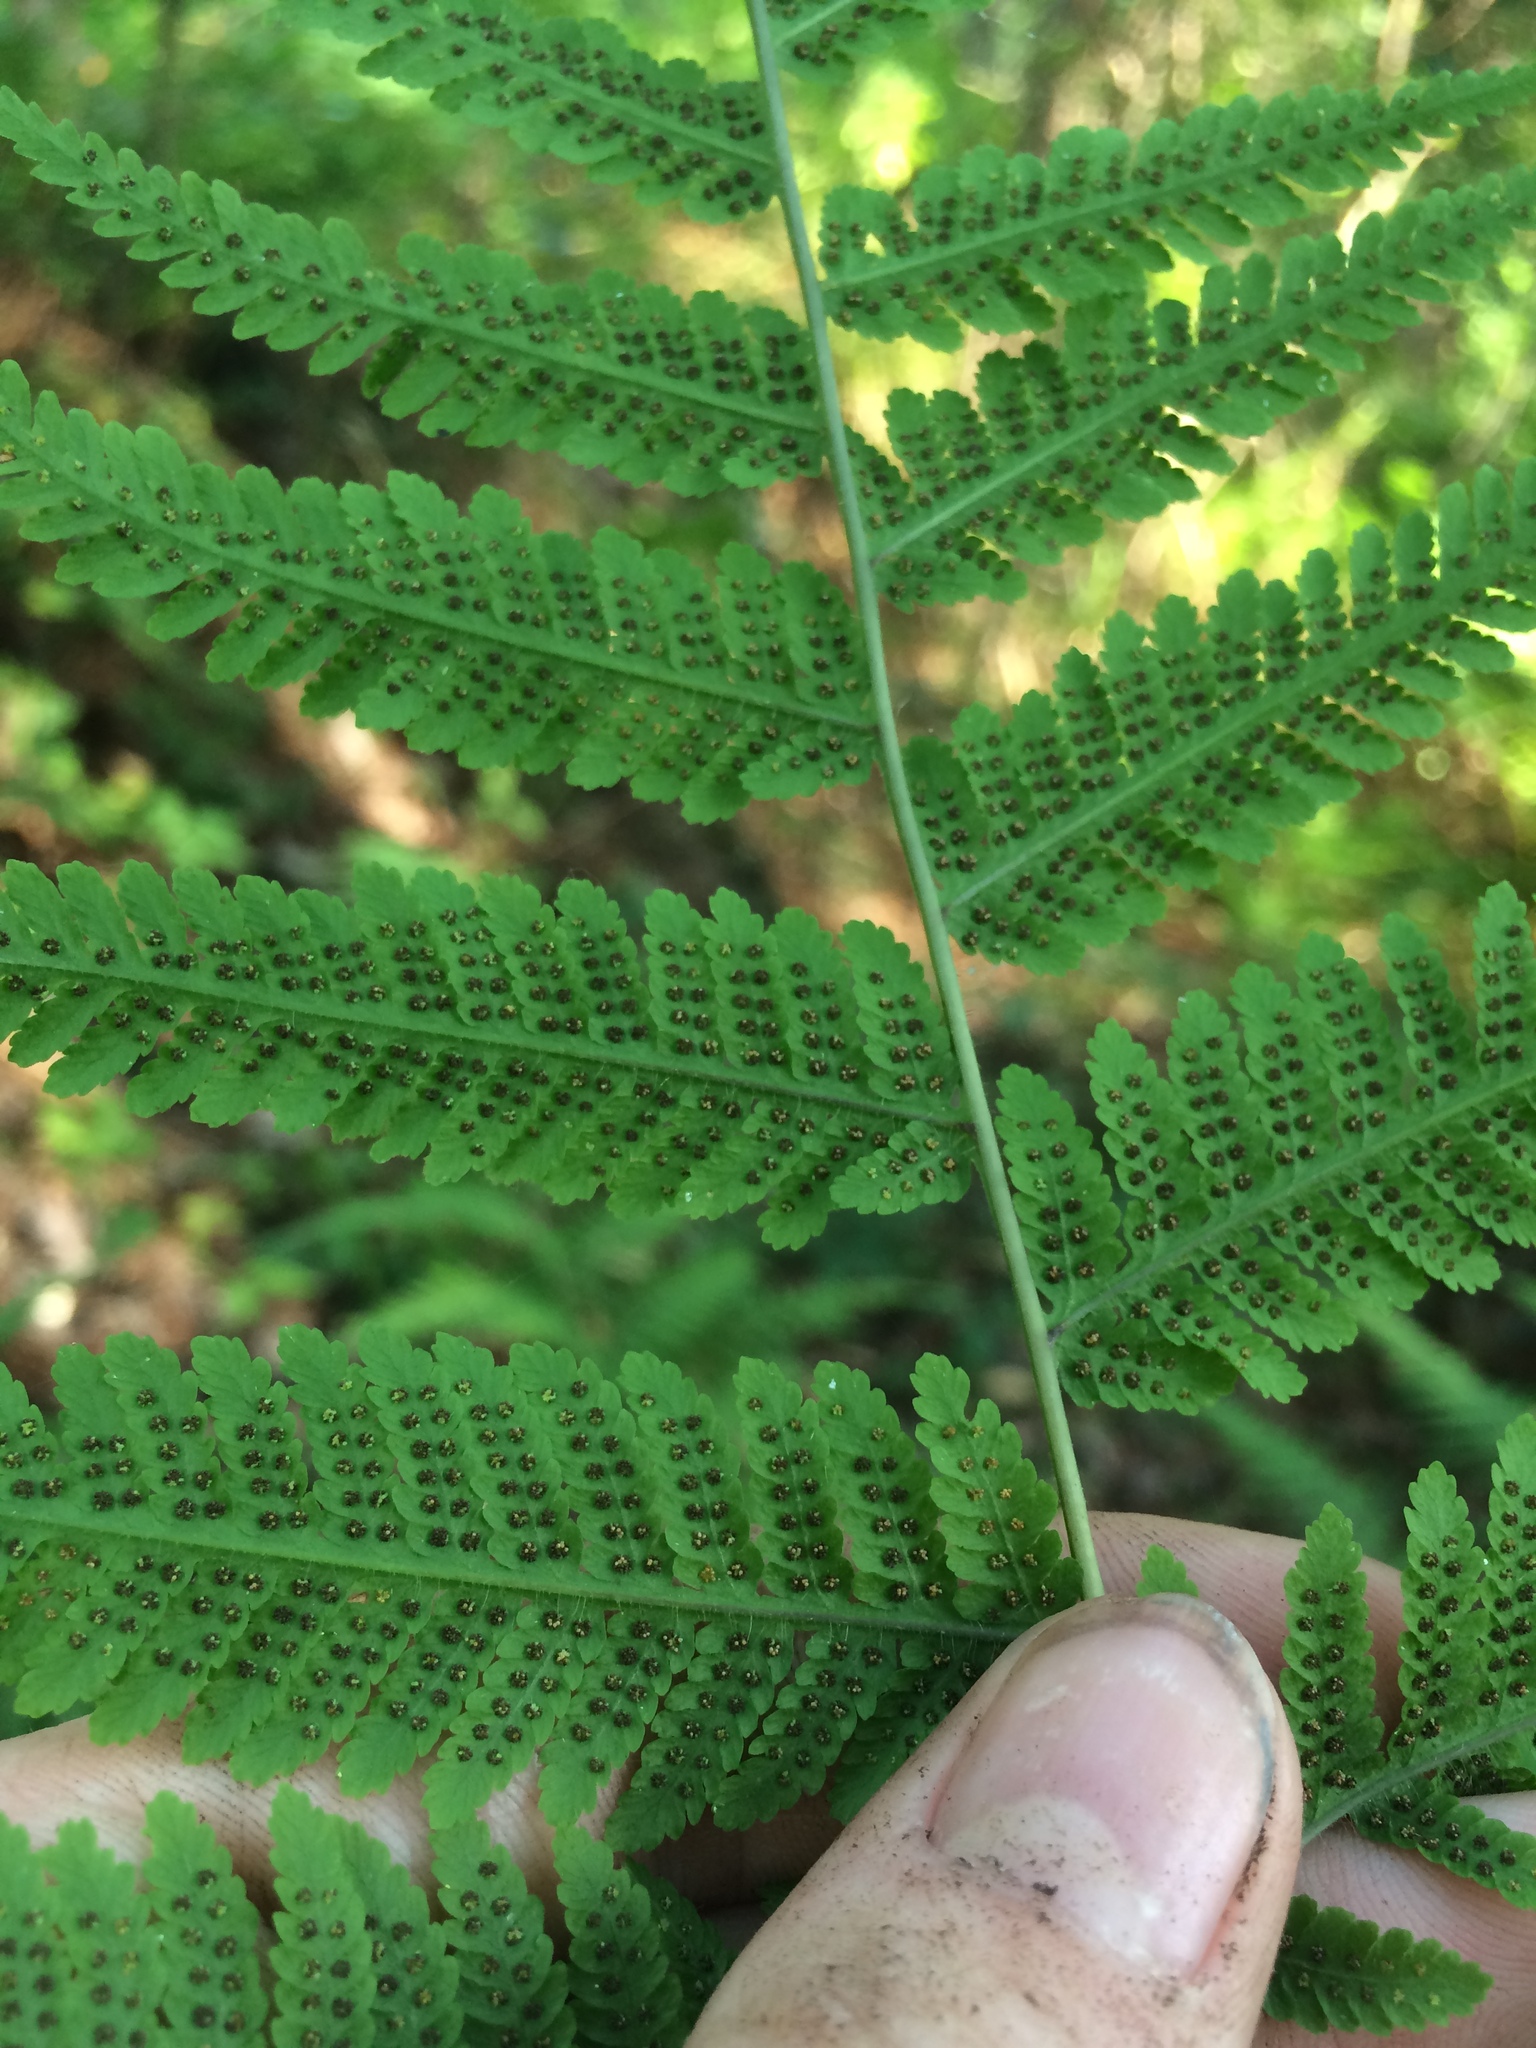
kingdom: Plantae
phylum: Tracheophyta
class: Polypodiopsida
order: Polypodiales
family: Thelypteridaceae
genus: Macrothelypteris
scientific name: Macrothelypteris torresiana
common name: Swordfern
